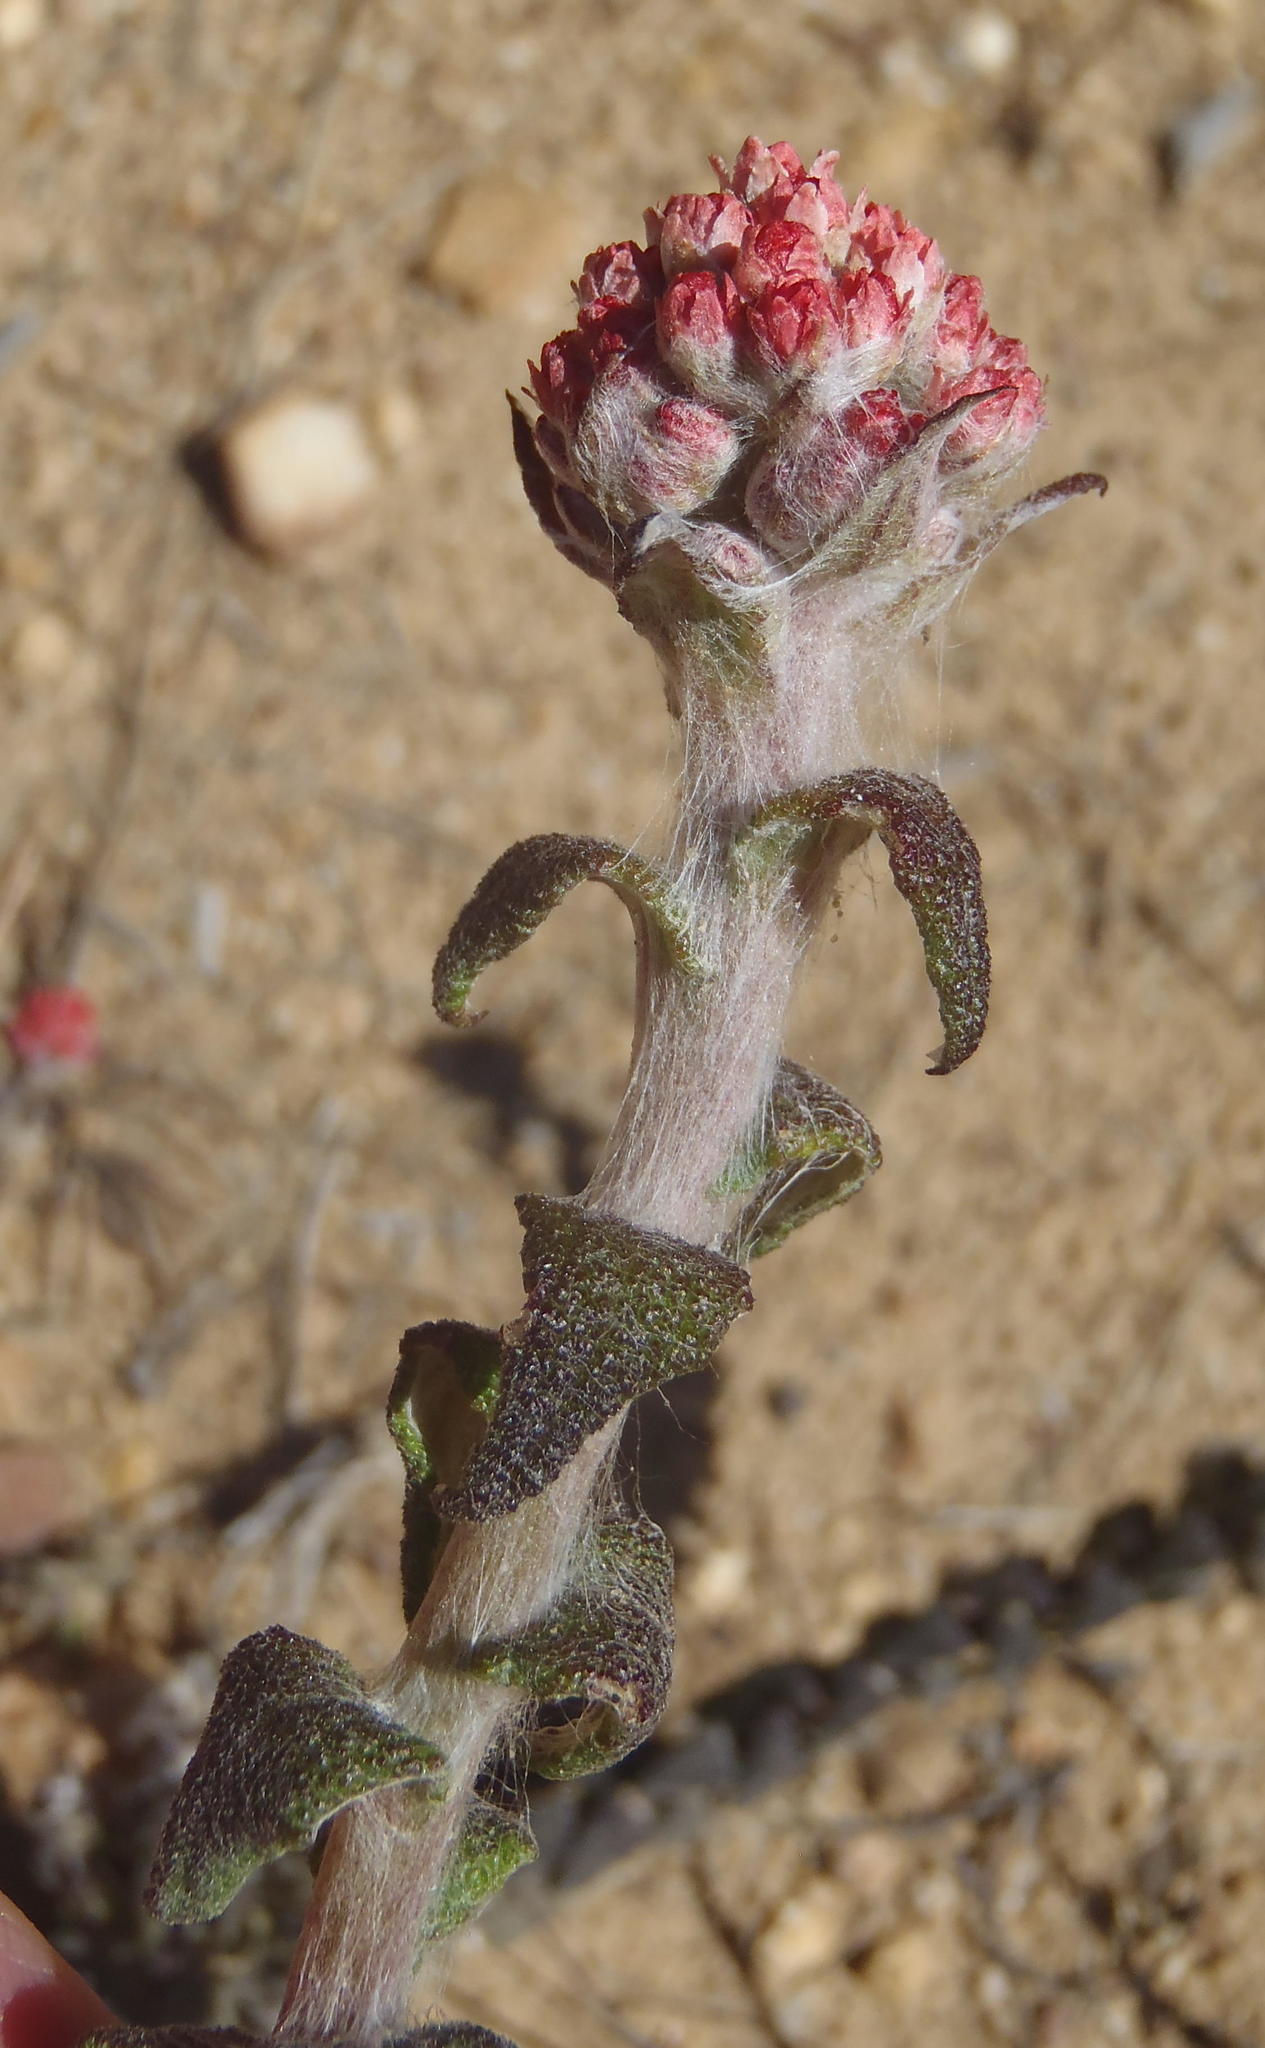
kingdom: Plantae
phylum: Tracheophyta
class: Magnoliopsida
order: Asterales
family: Asteraceae
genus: Helichrysum
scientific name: Helichrysum felinum
